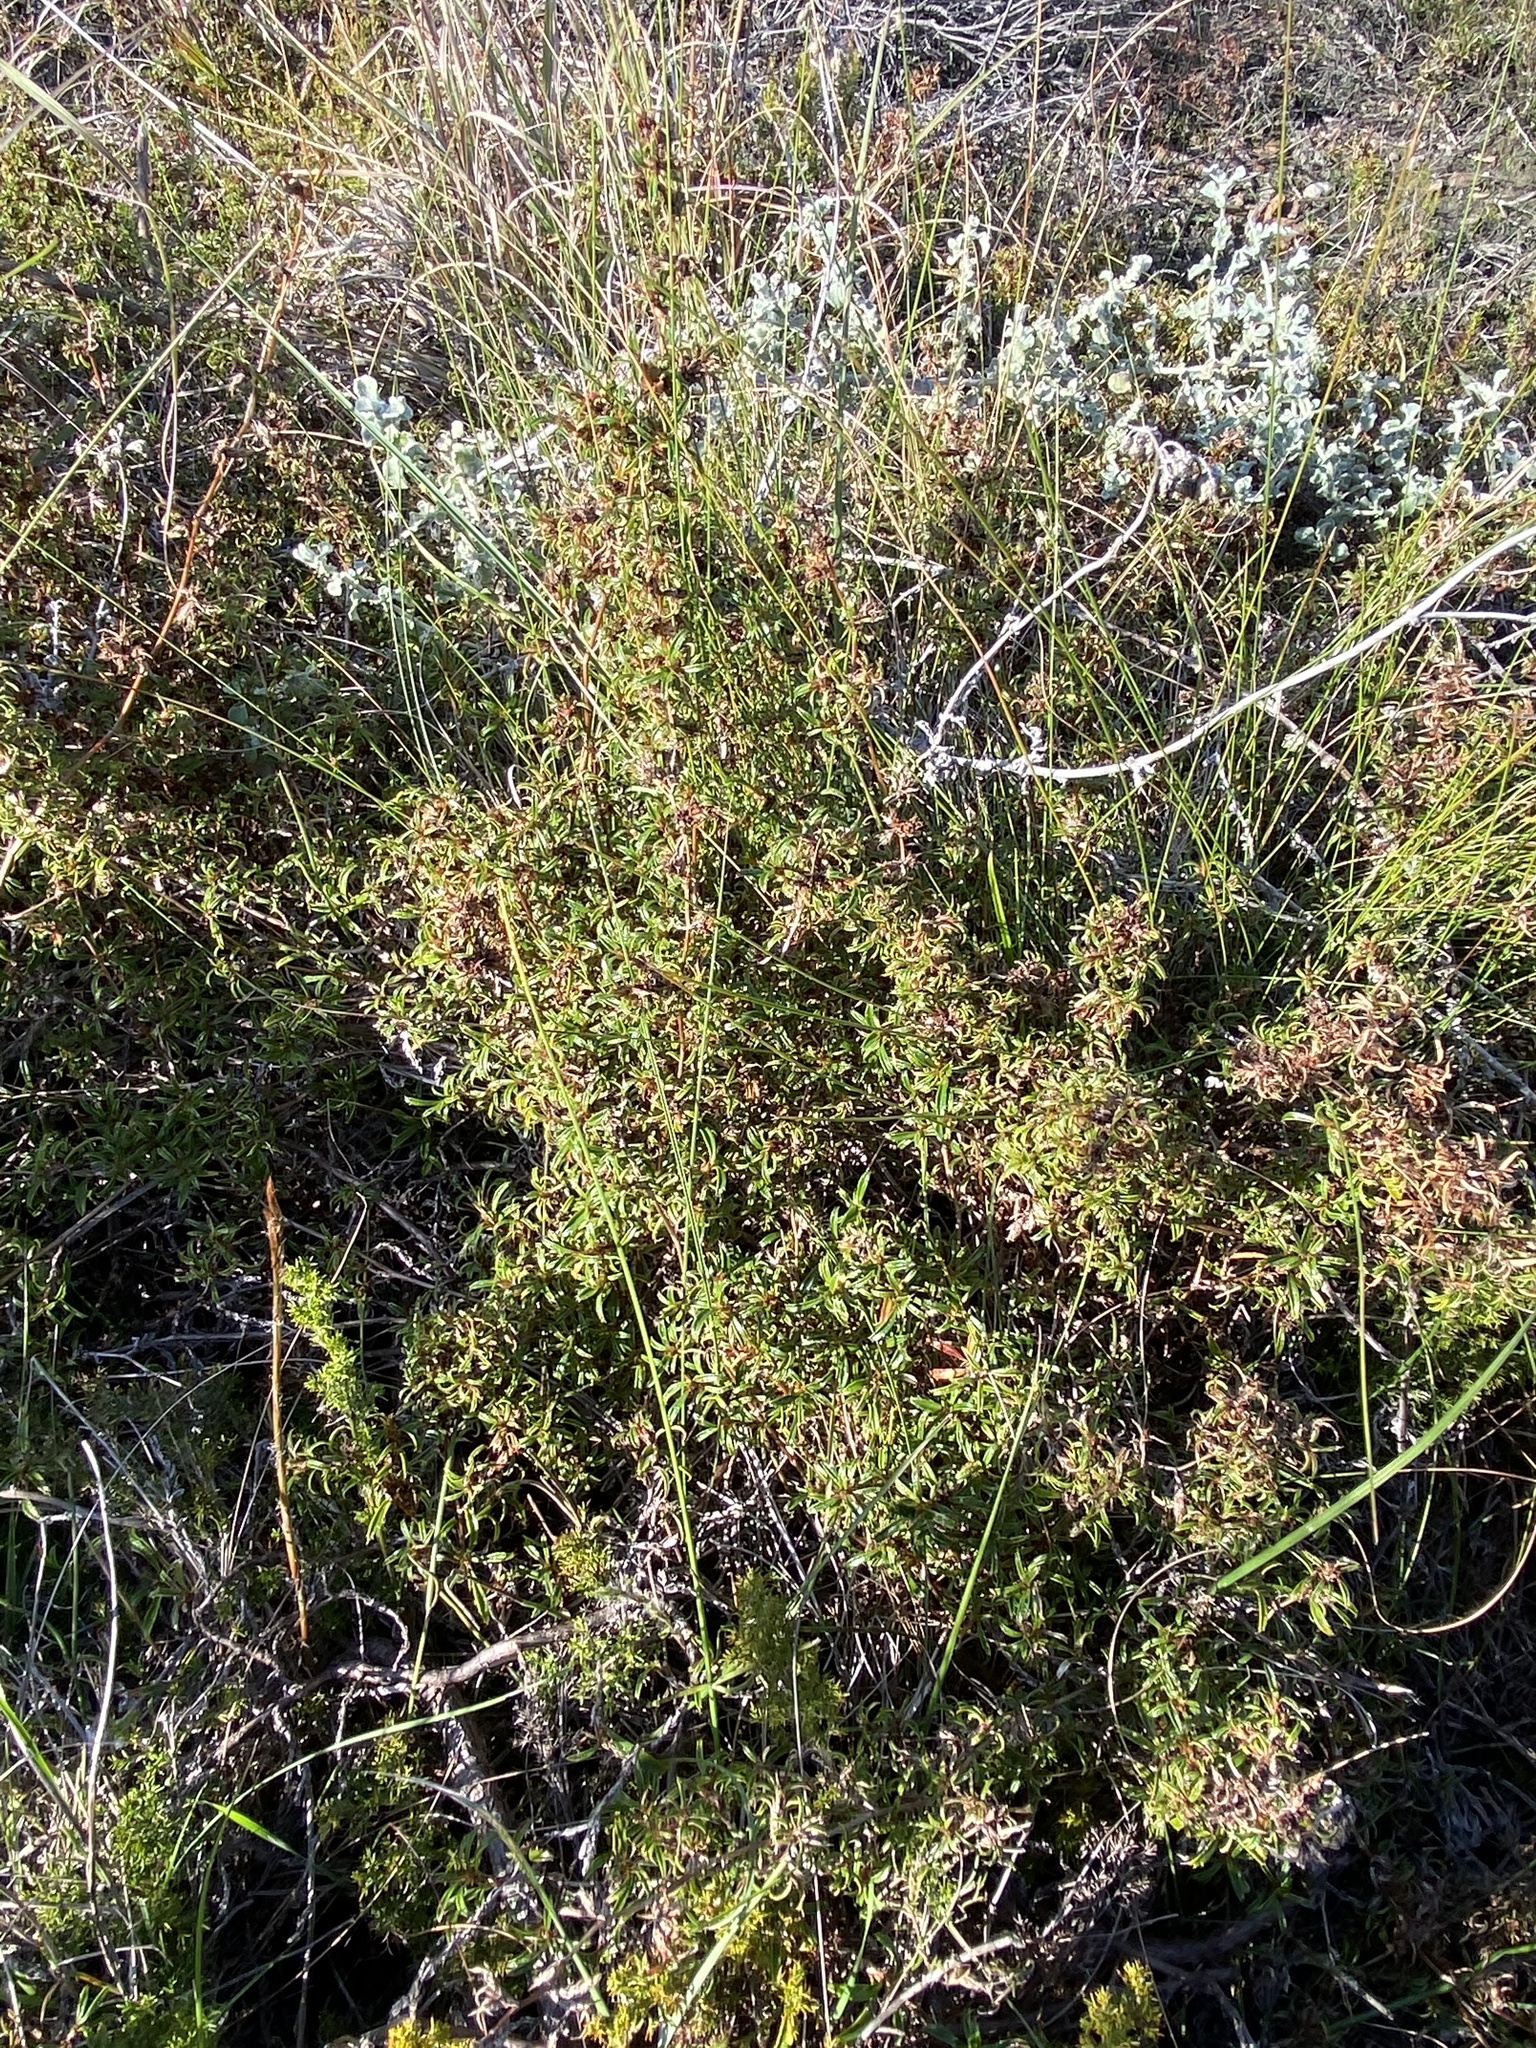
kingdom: Plantae
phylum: Tracheophyta
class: Magnoliopsida
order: Rosales
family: Rosaceae
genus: Cliffortia
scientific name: Cliffortia ferruginea
